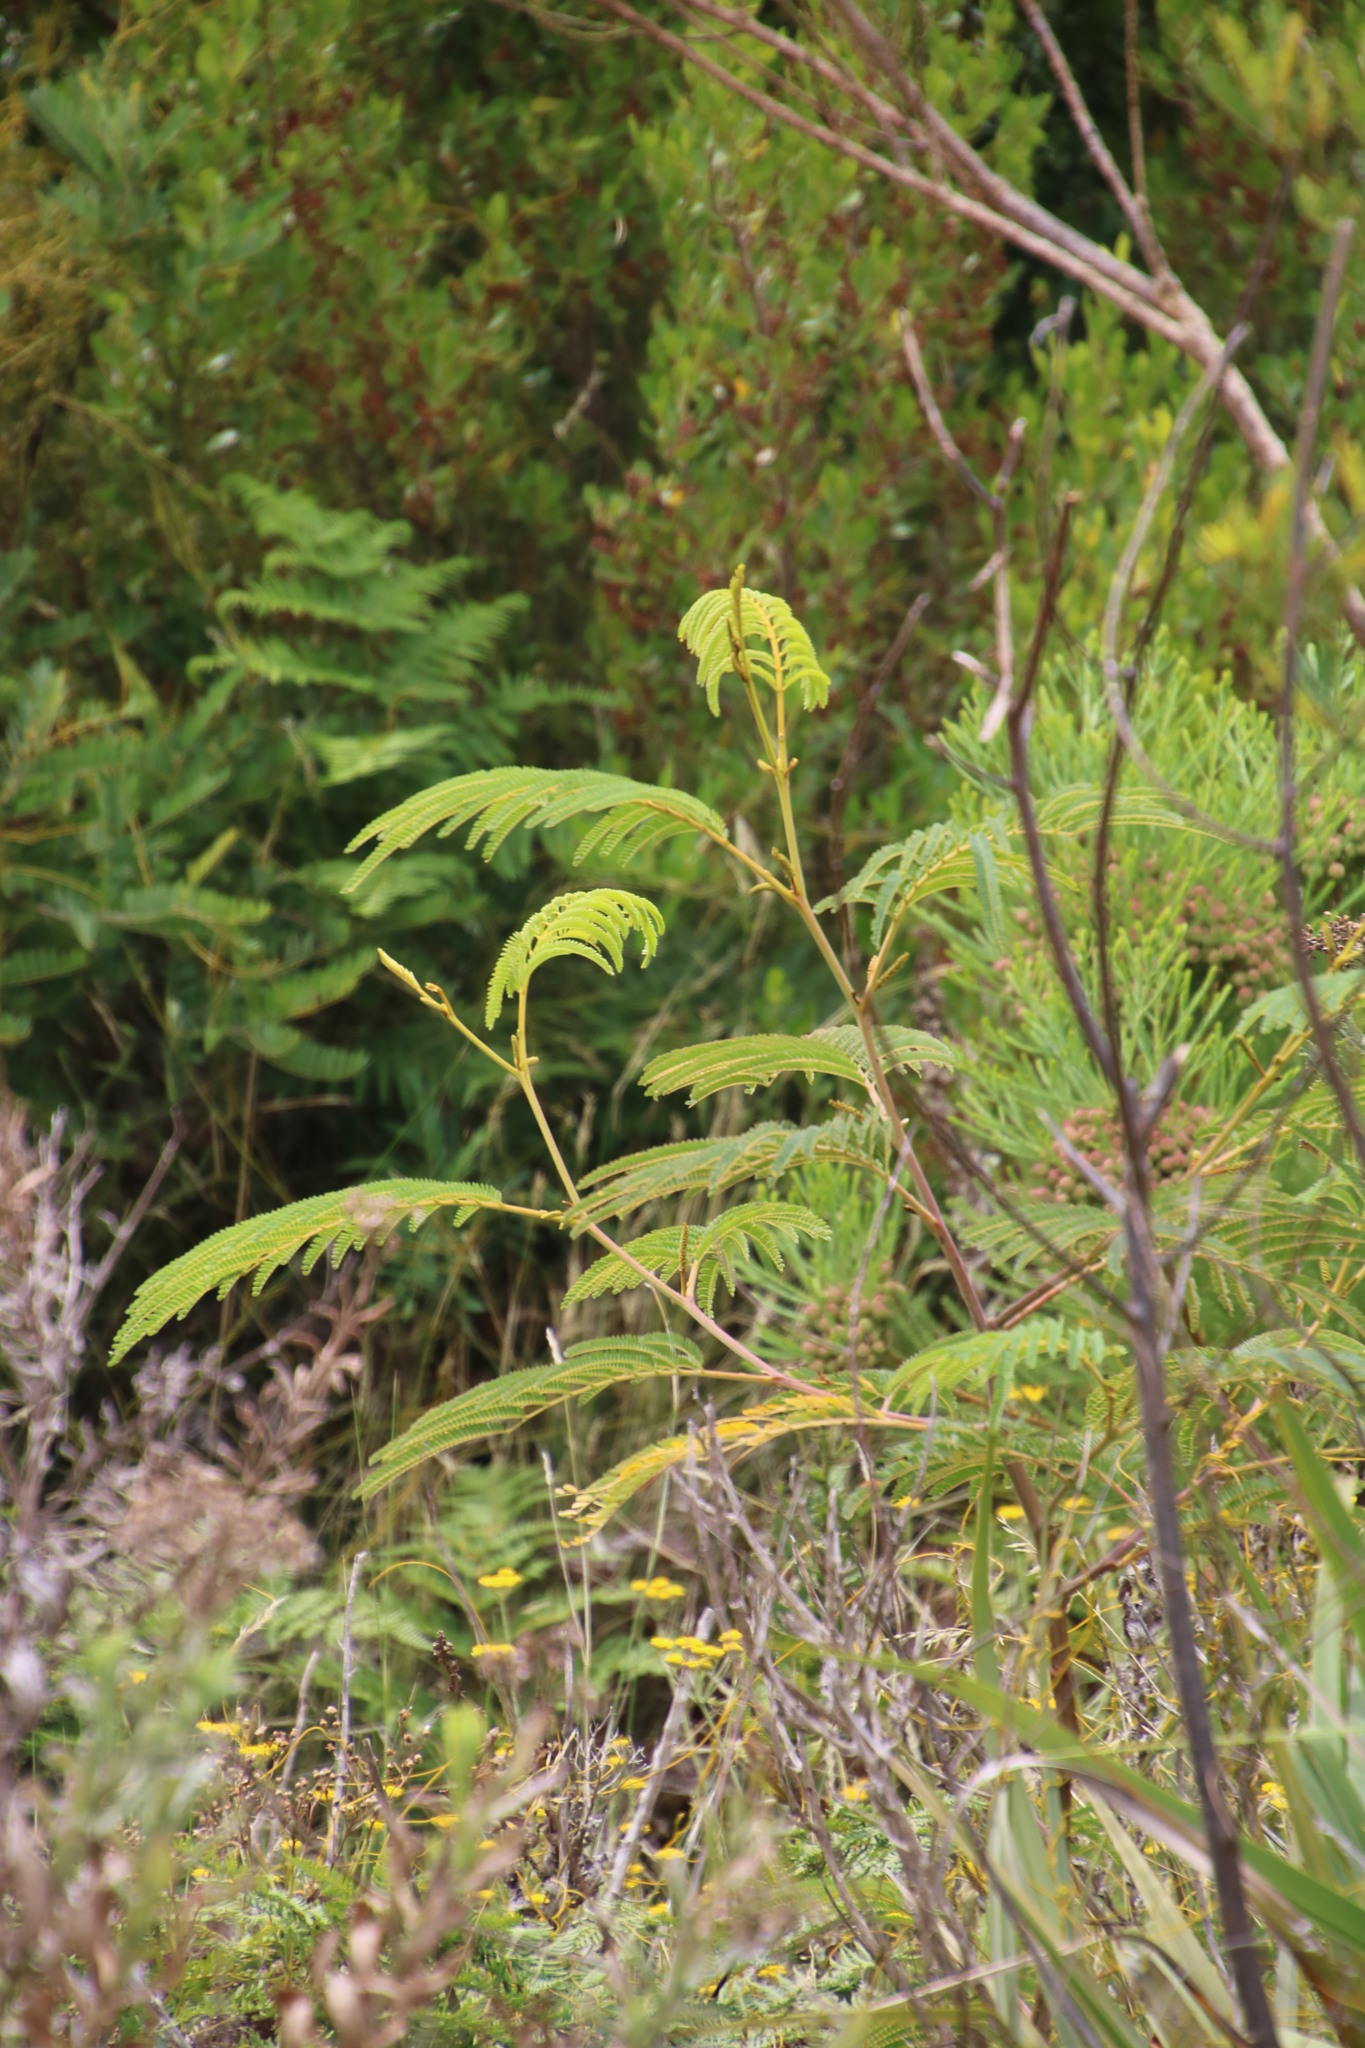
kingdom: Plantae
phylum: Tracheophyta
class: Magnoliopsida
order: Fabales
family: Fabaceae
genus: Paraserianthes
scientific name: Paraserianthes lophantha
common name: Plume albizia
